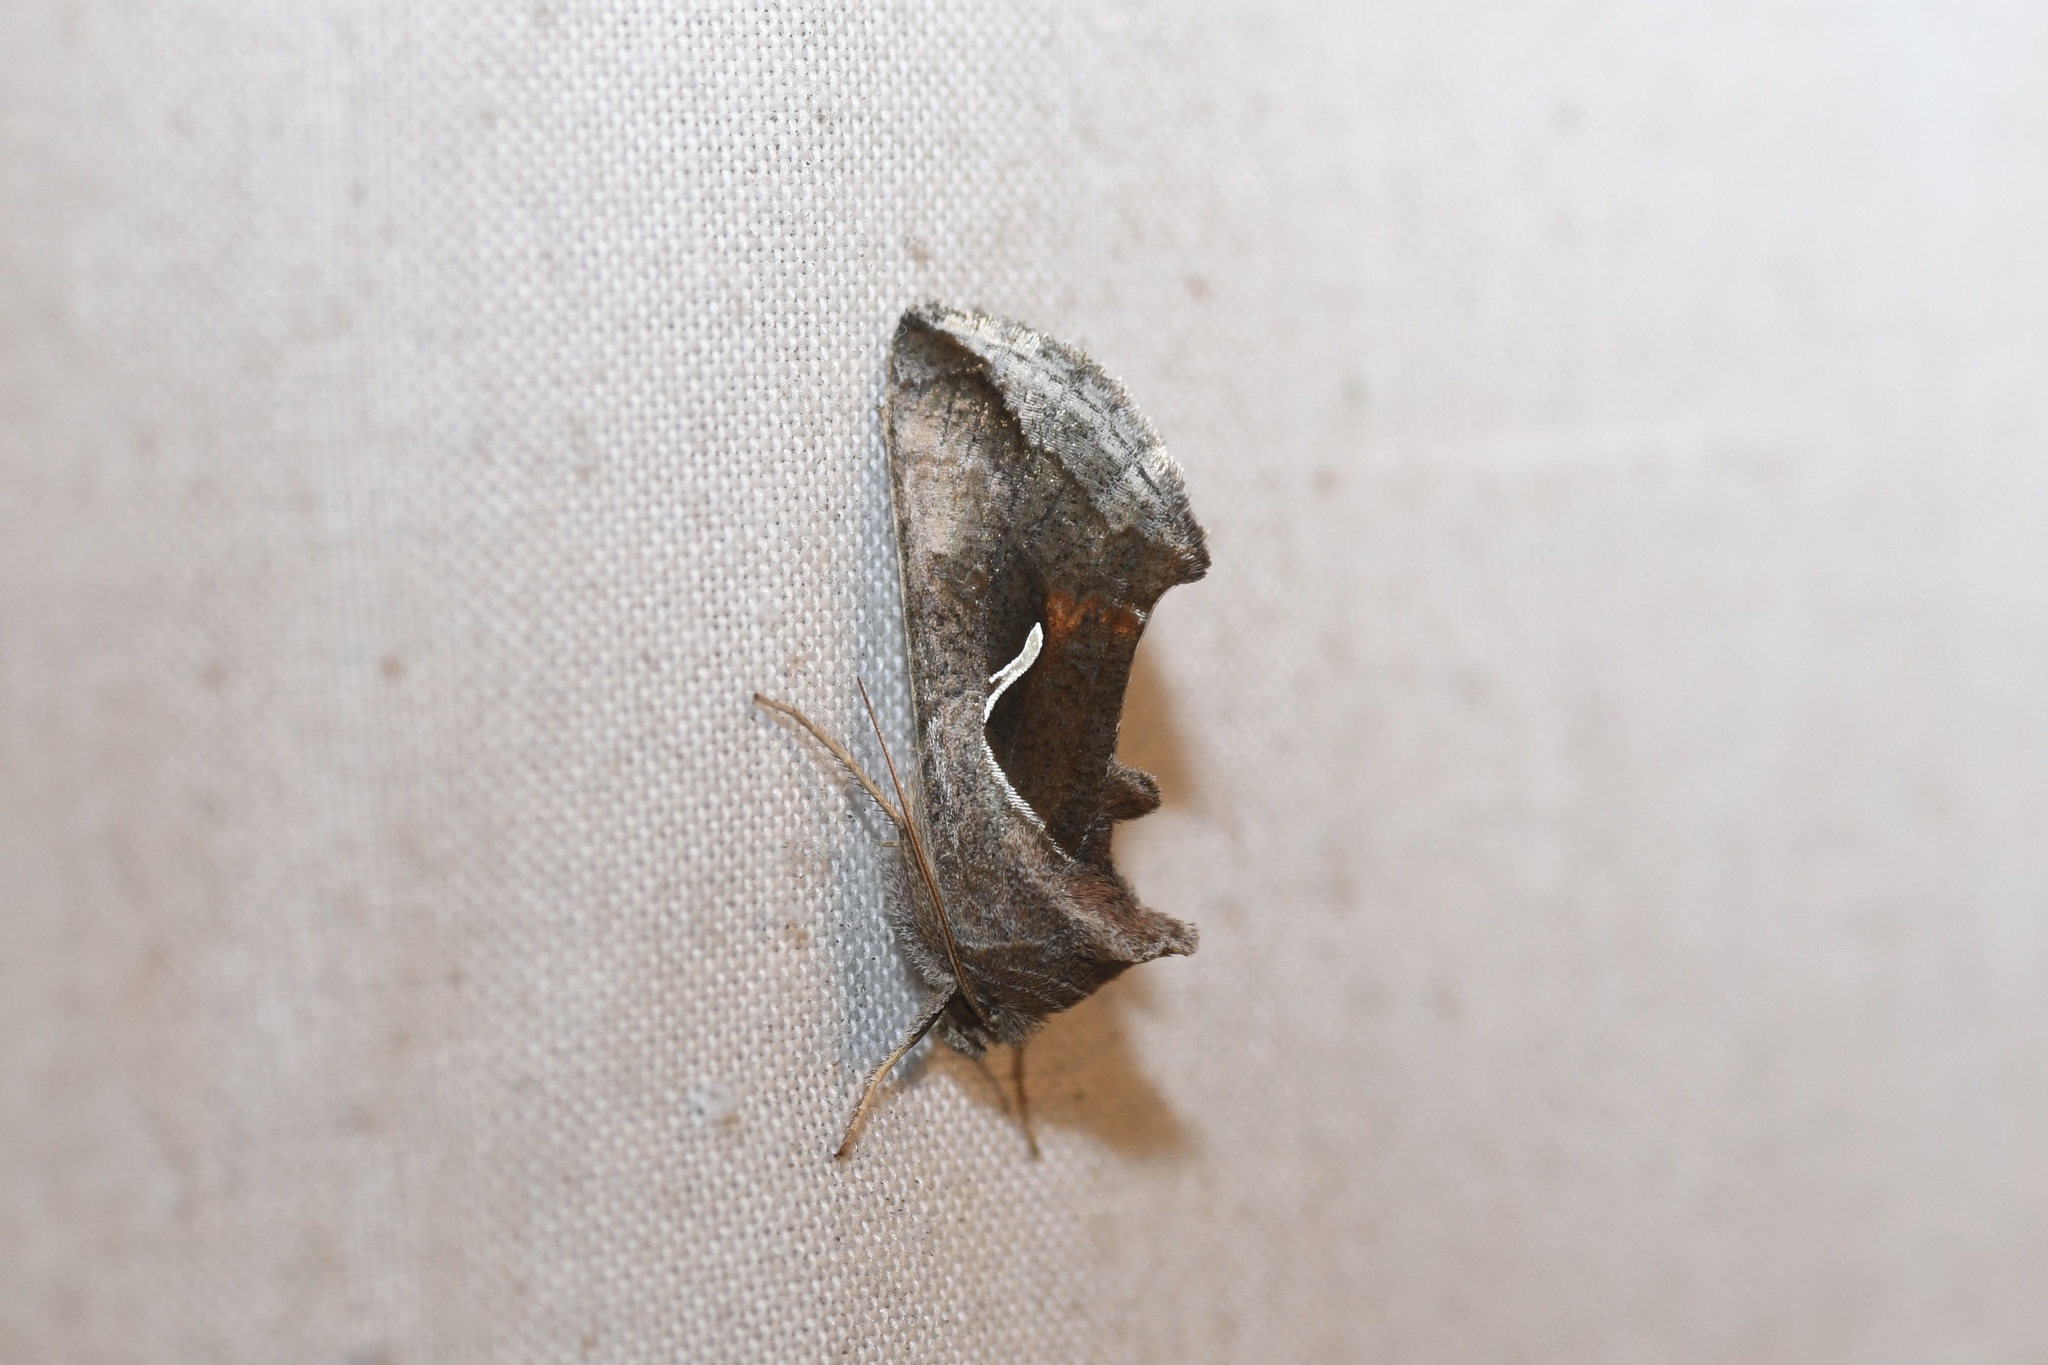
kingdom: Animalia
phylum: Arthropoda
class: Insecta
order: Lepidoptera
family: Noctuidae
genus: Anagrapha
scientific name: Anagrapha falcifera
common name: Celery looper
